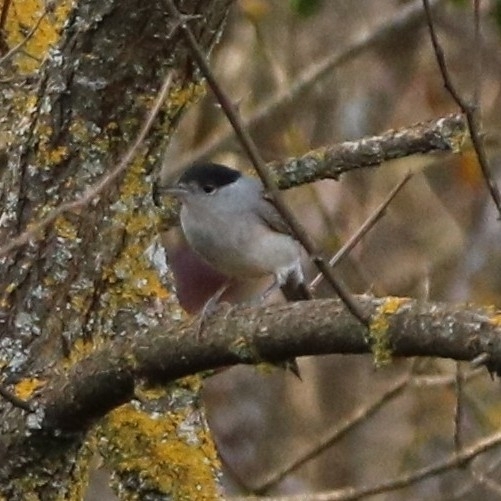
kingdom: Animalia
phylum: Chordata
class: Aves
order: Passeriformes
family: Sylviidae
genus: Sylvia
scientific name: Sylvia atricapilla
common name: Eurasian blackcap
